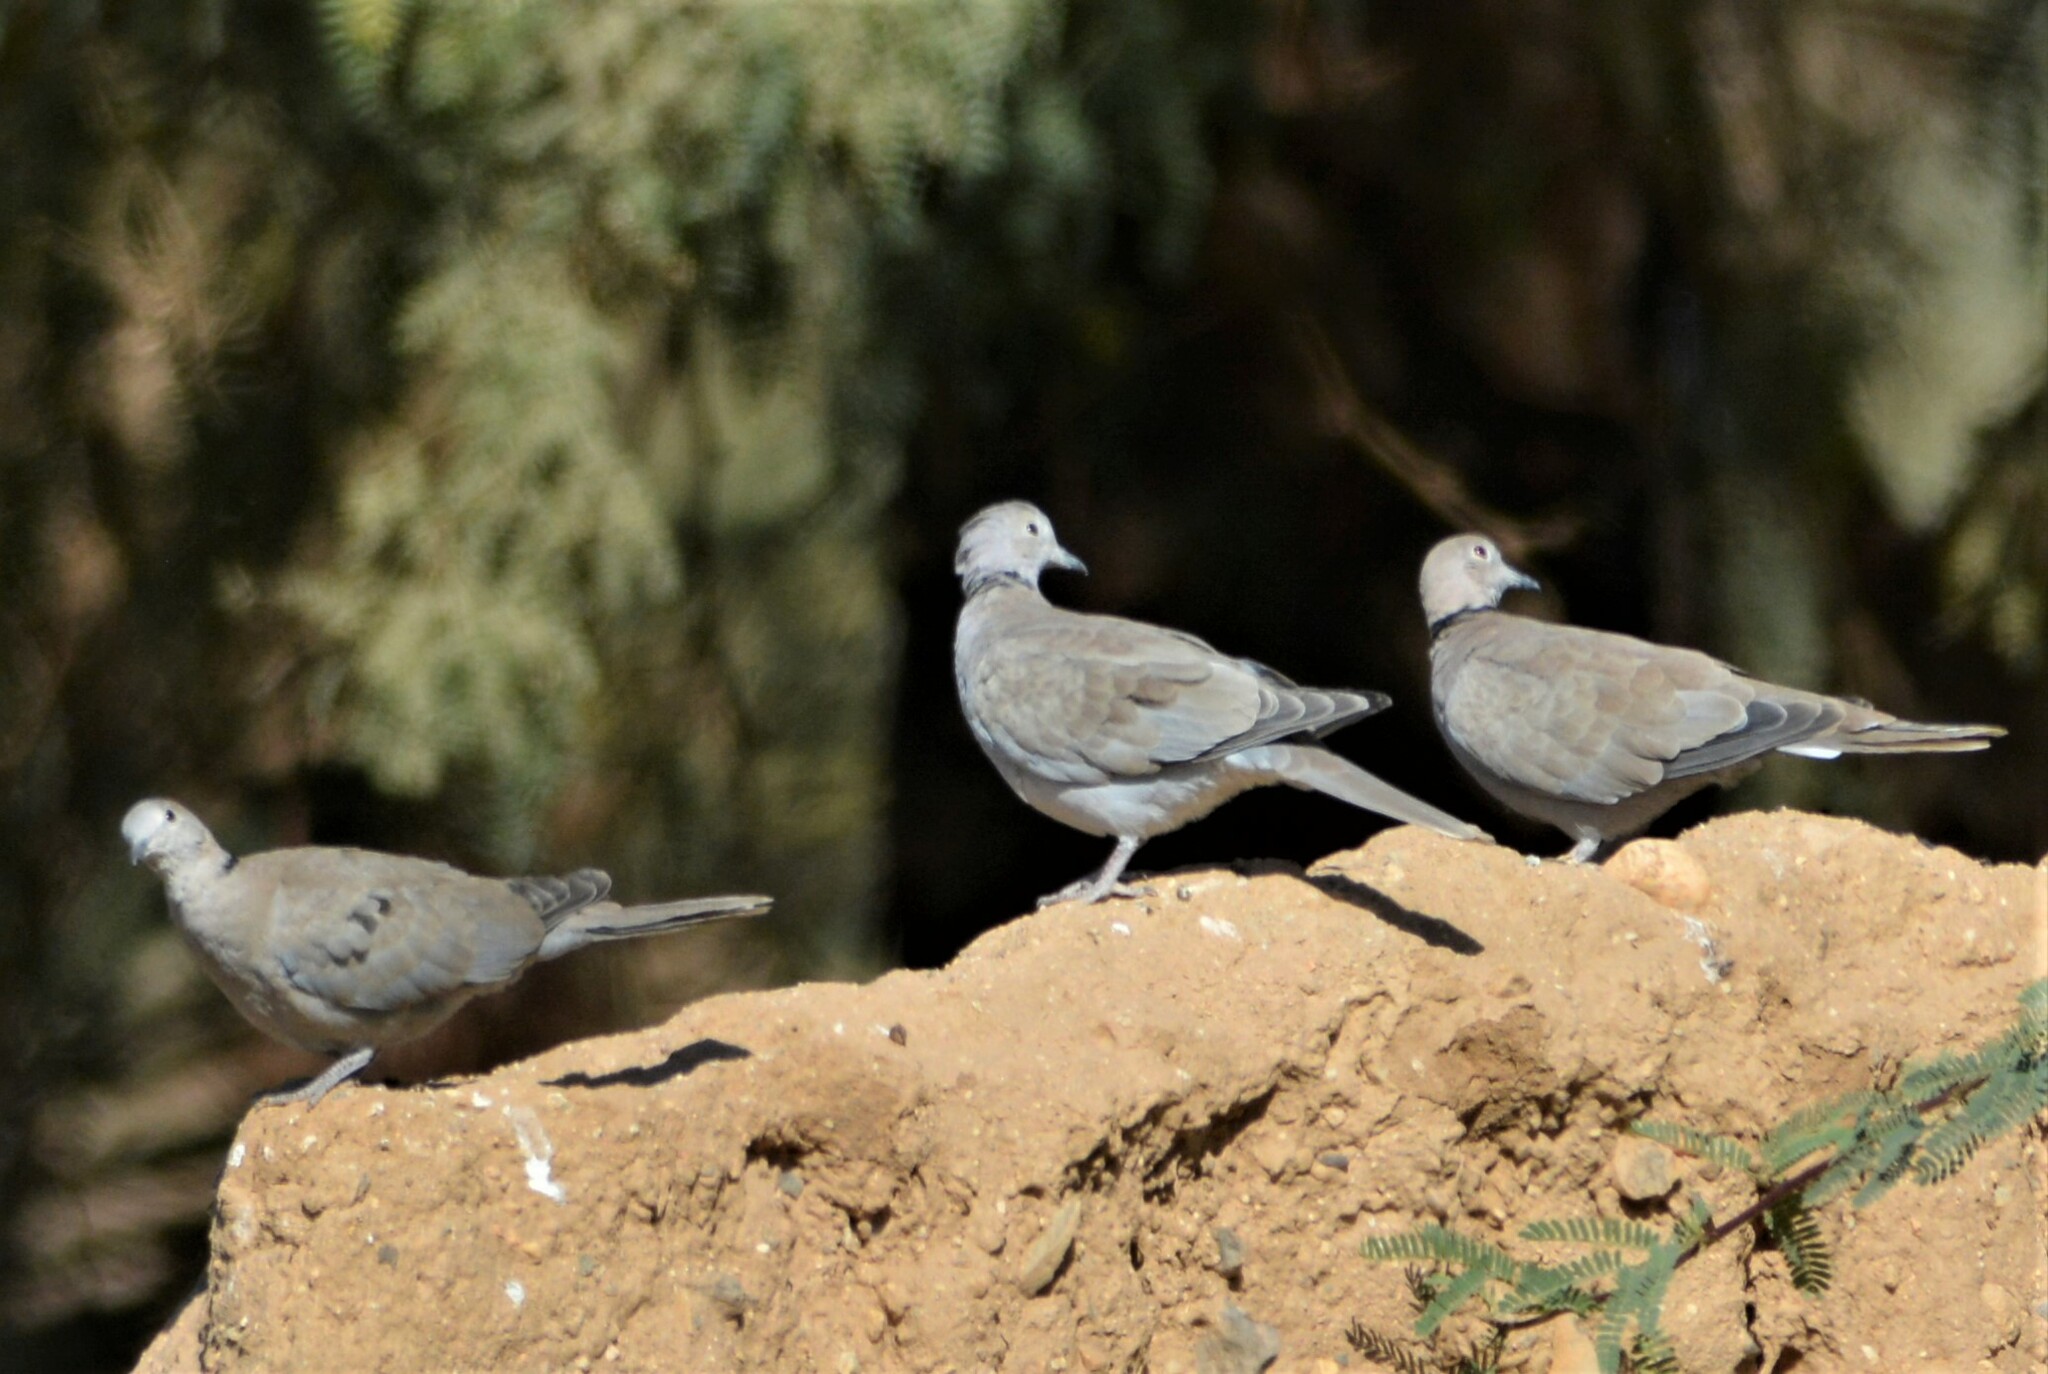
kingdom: Animalia
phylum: Chordata
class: Aves
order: Columbiformes
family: Columbidae
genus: Streptopelia
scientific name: Streptopelia decaocto
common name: Eurasian collared dove
